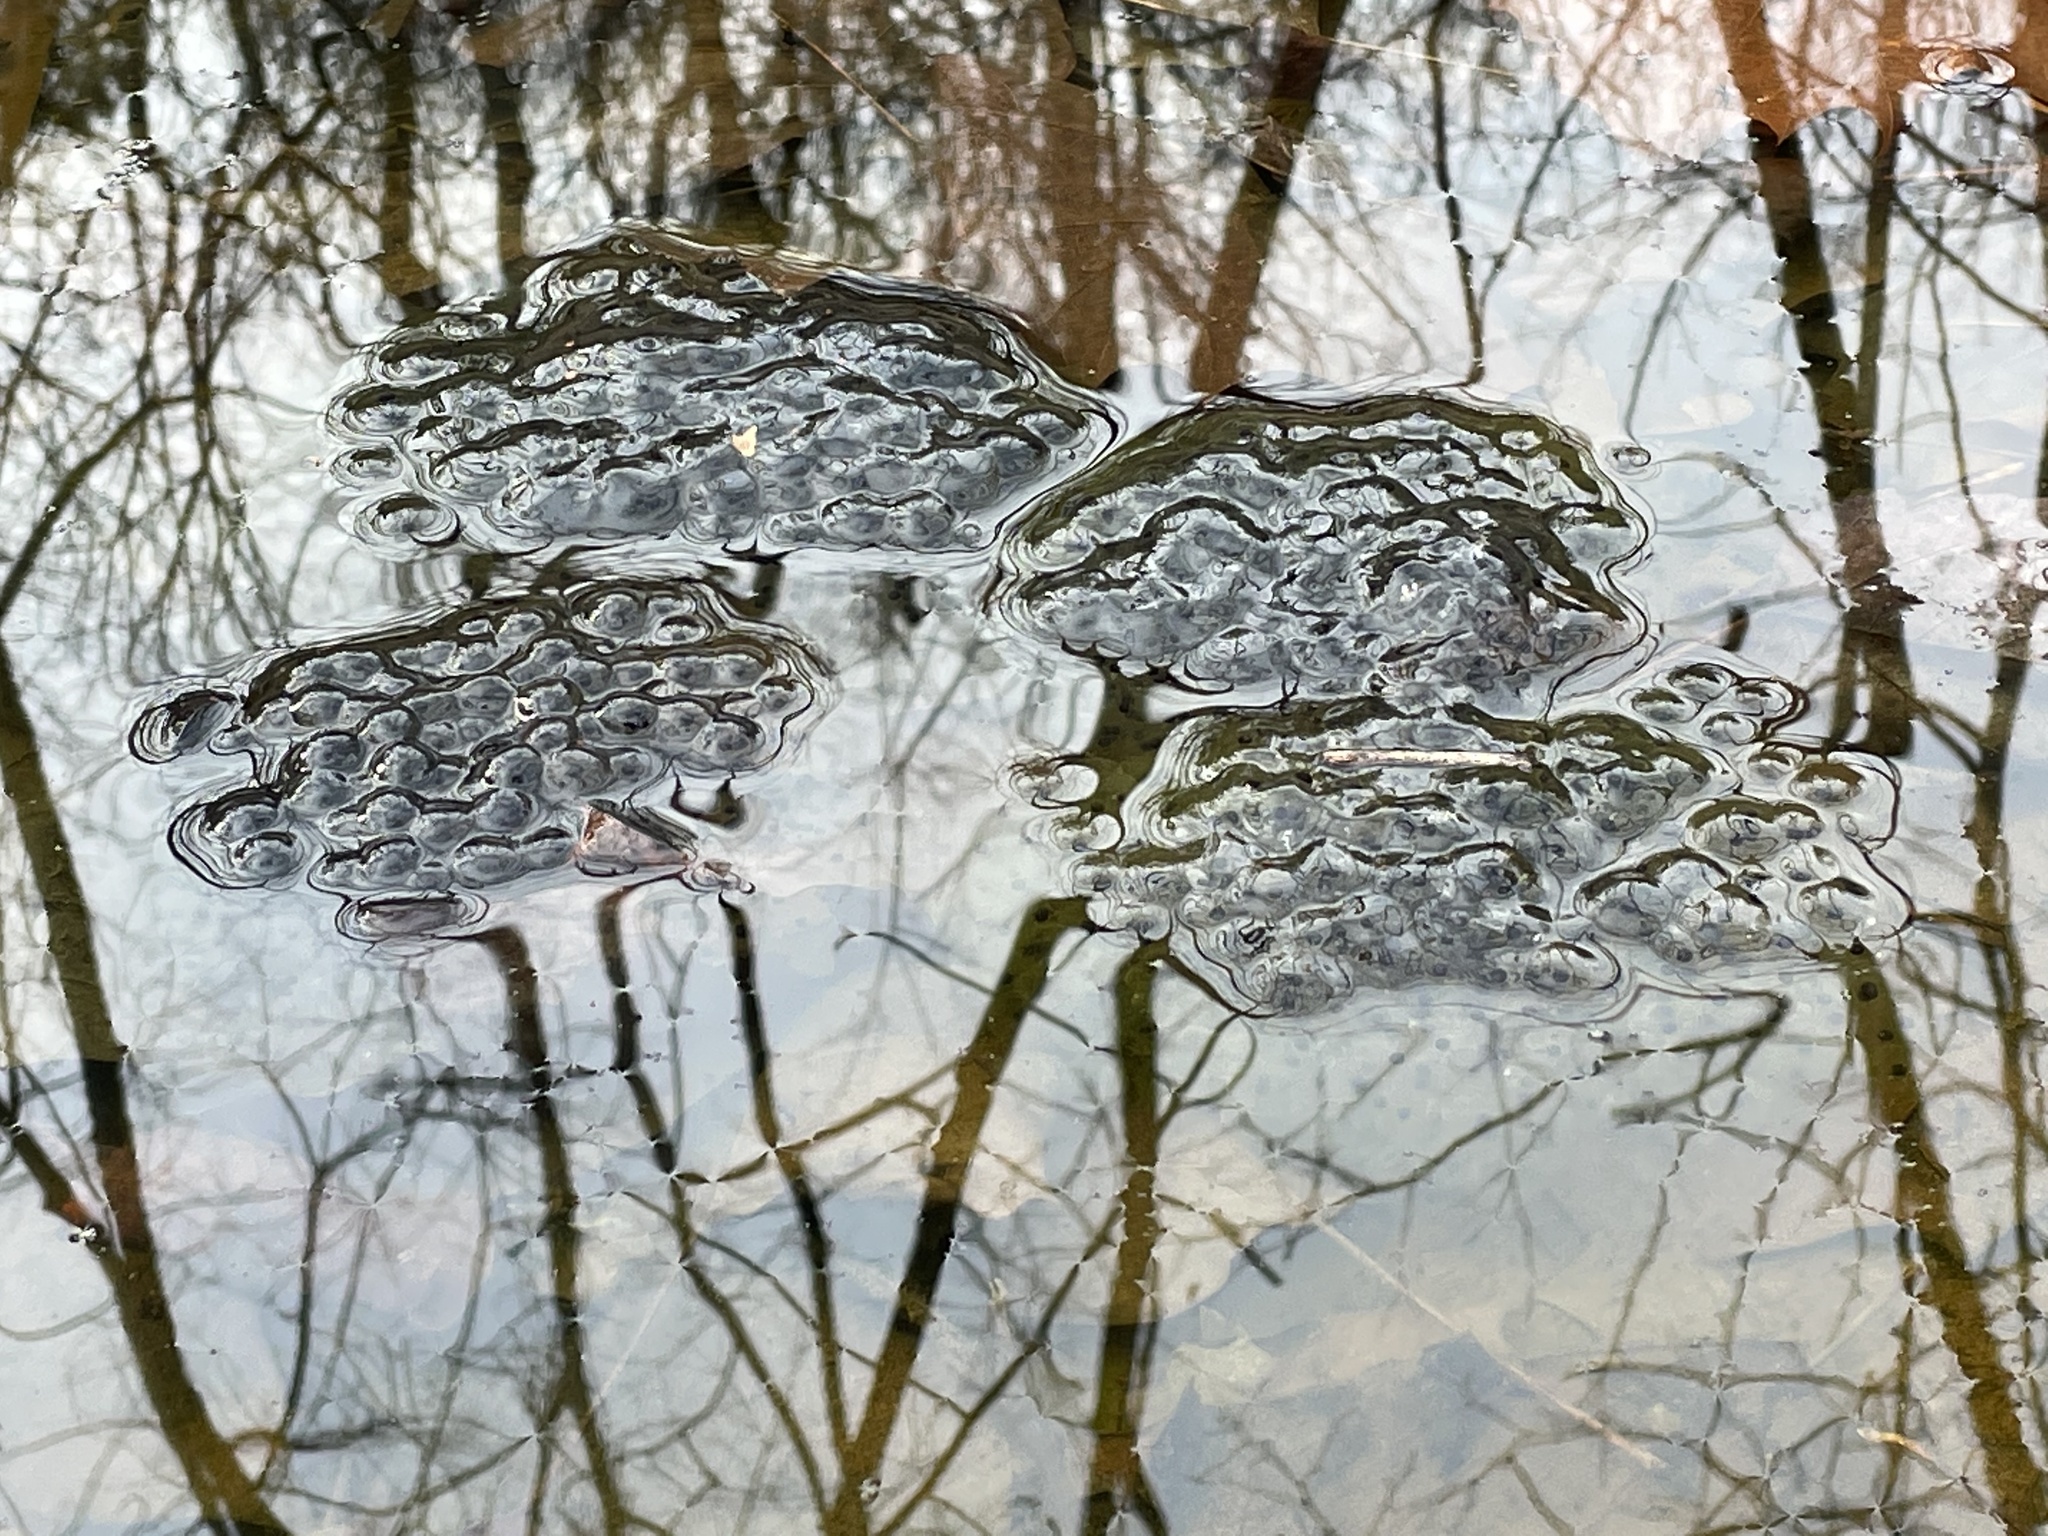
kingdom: Animalia
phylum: Chordata
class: Amphibia
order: Anura
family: Ranidae
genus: Lithobates
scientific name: Lithobates sylvaticus
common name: Wood frog
